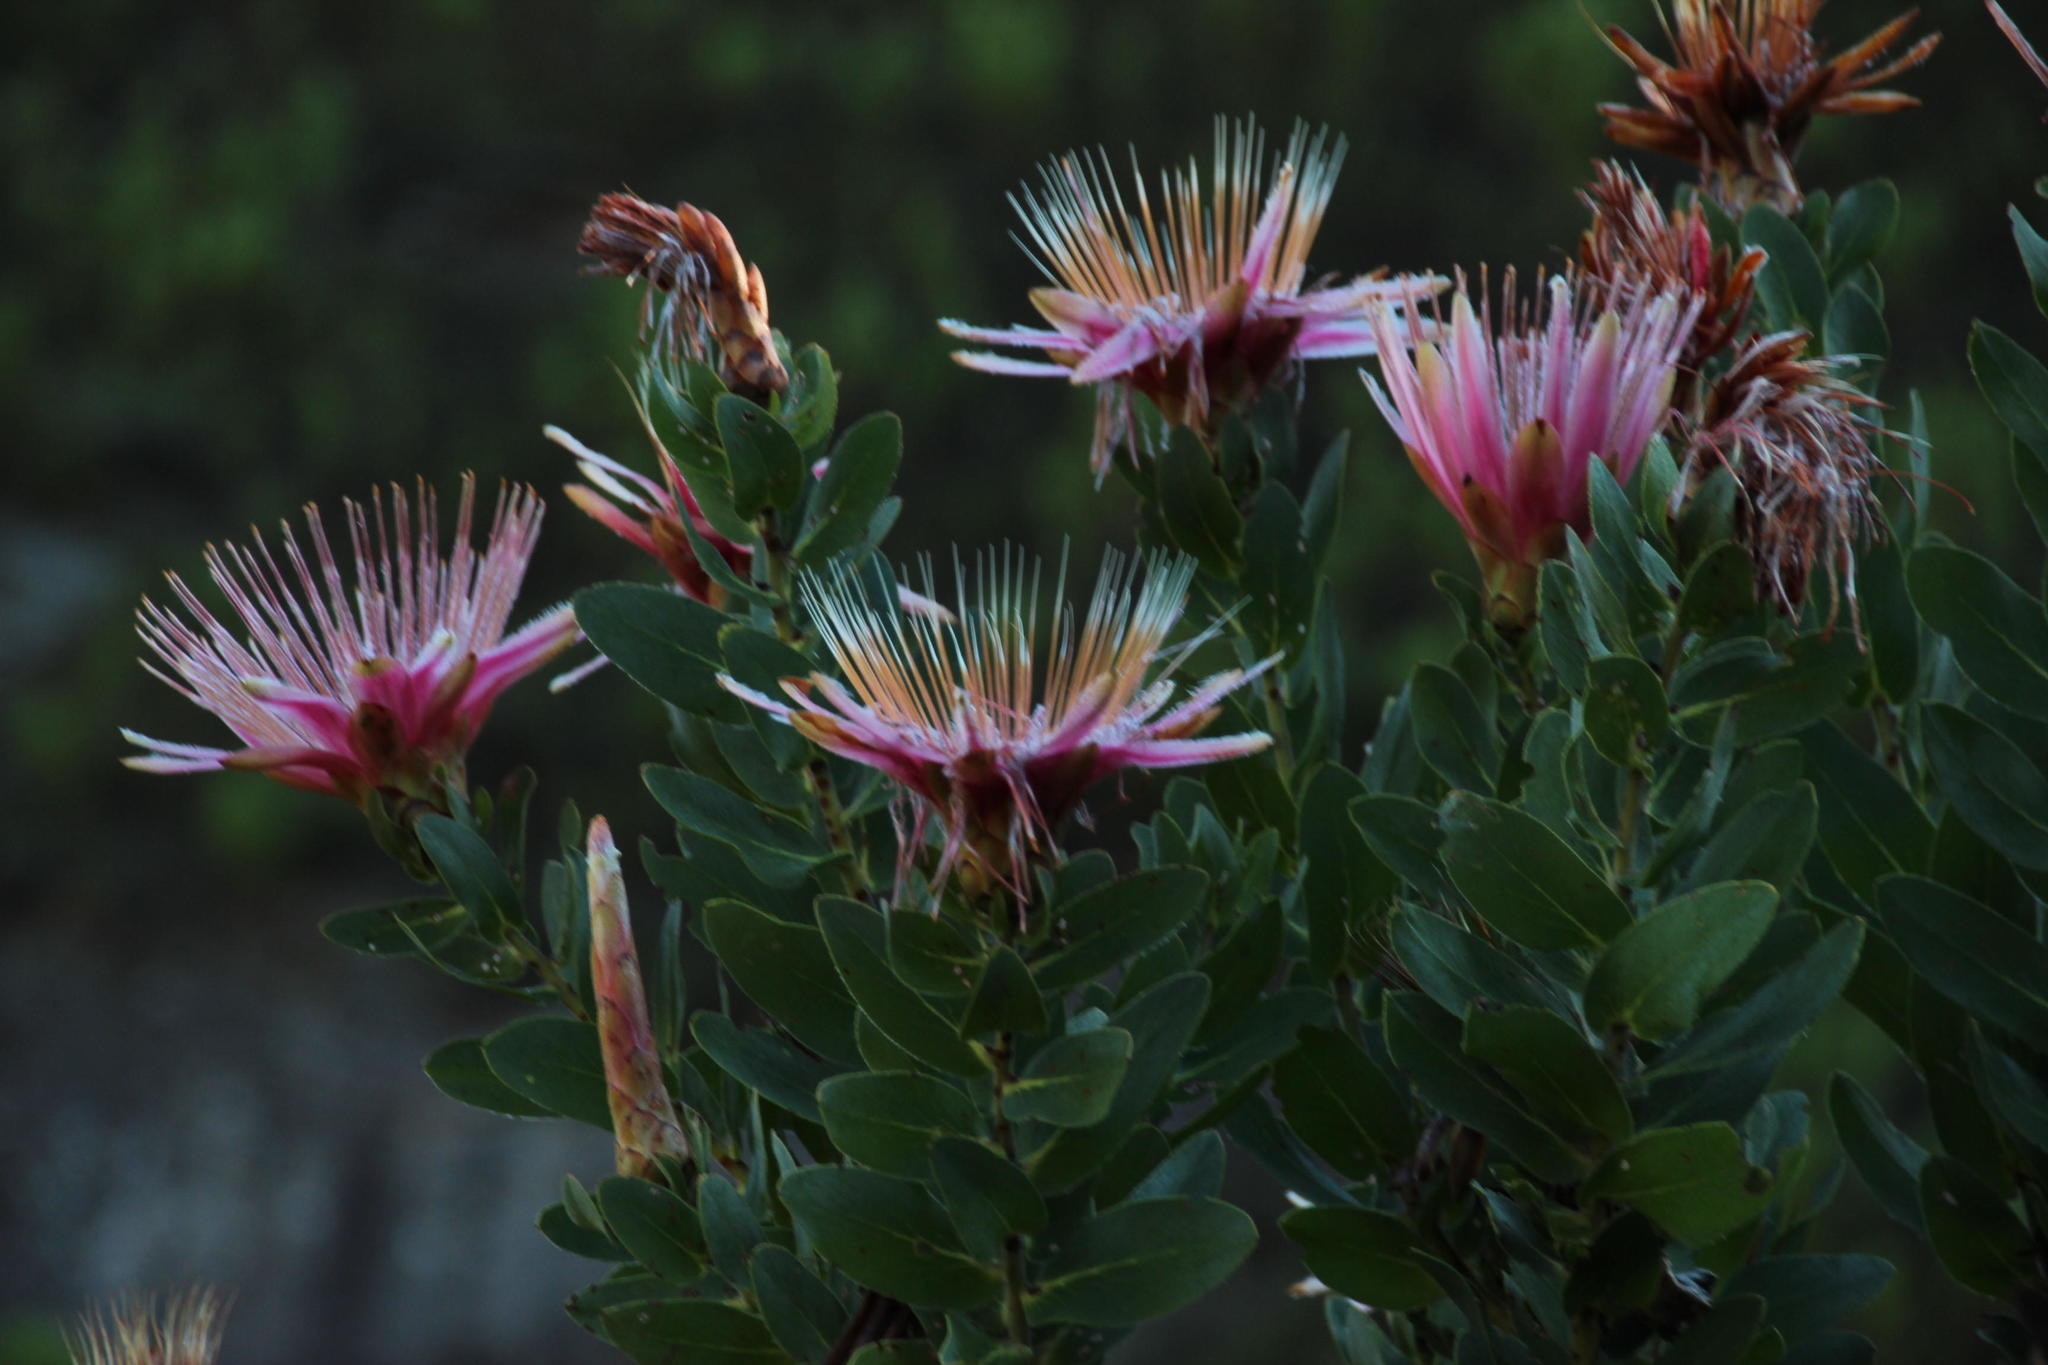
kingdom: Plantae
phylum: Tracheophyta
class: Magnoliopsida
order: Proteales
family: Proteaceae
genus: Protea
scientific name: Protea aurea
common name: Shuttlecock sugarbush
